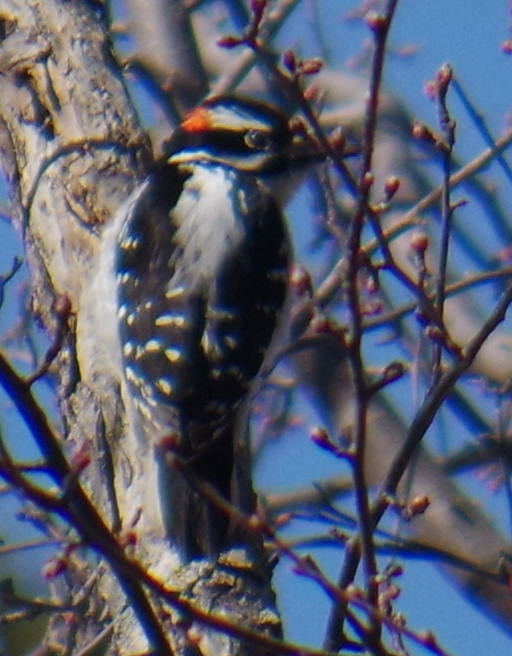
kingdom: Animalia
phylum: Chordata
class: Aves
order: Piciformes
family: Picidae
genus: Leuconotopicus
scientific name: Leuconotopicus villosus
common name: Hairy woodpecker
